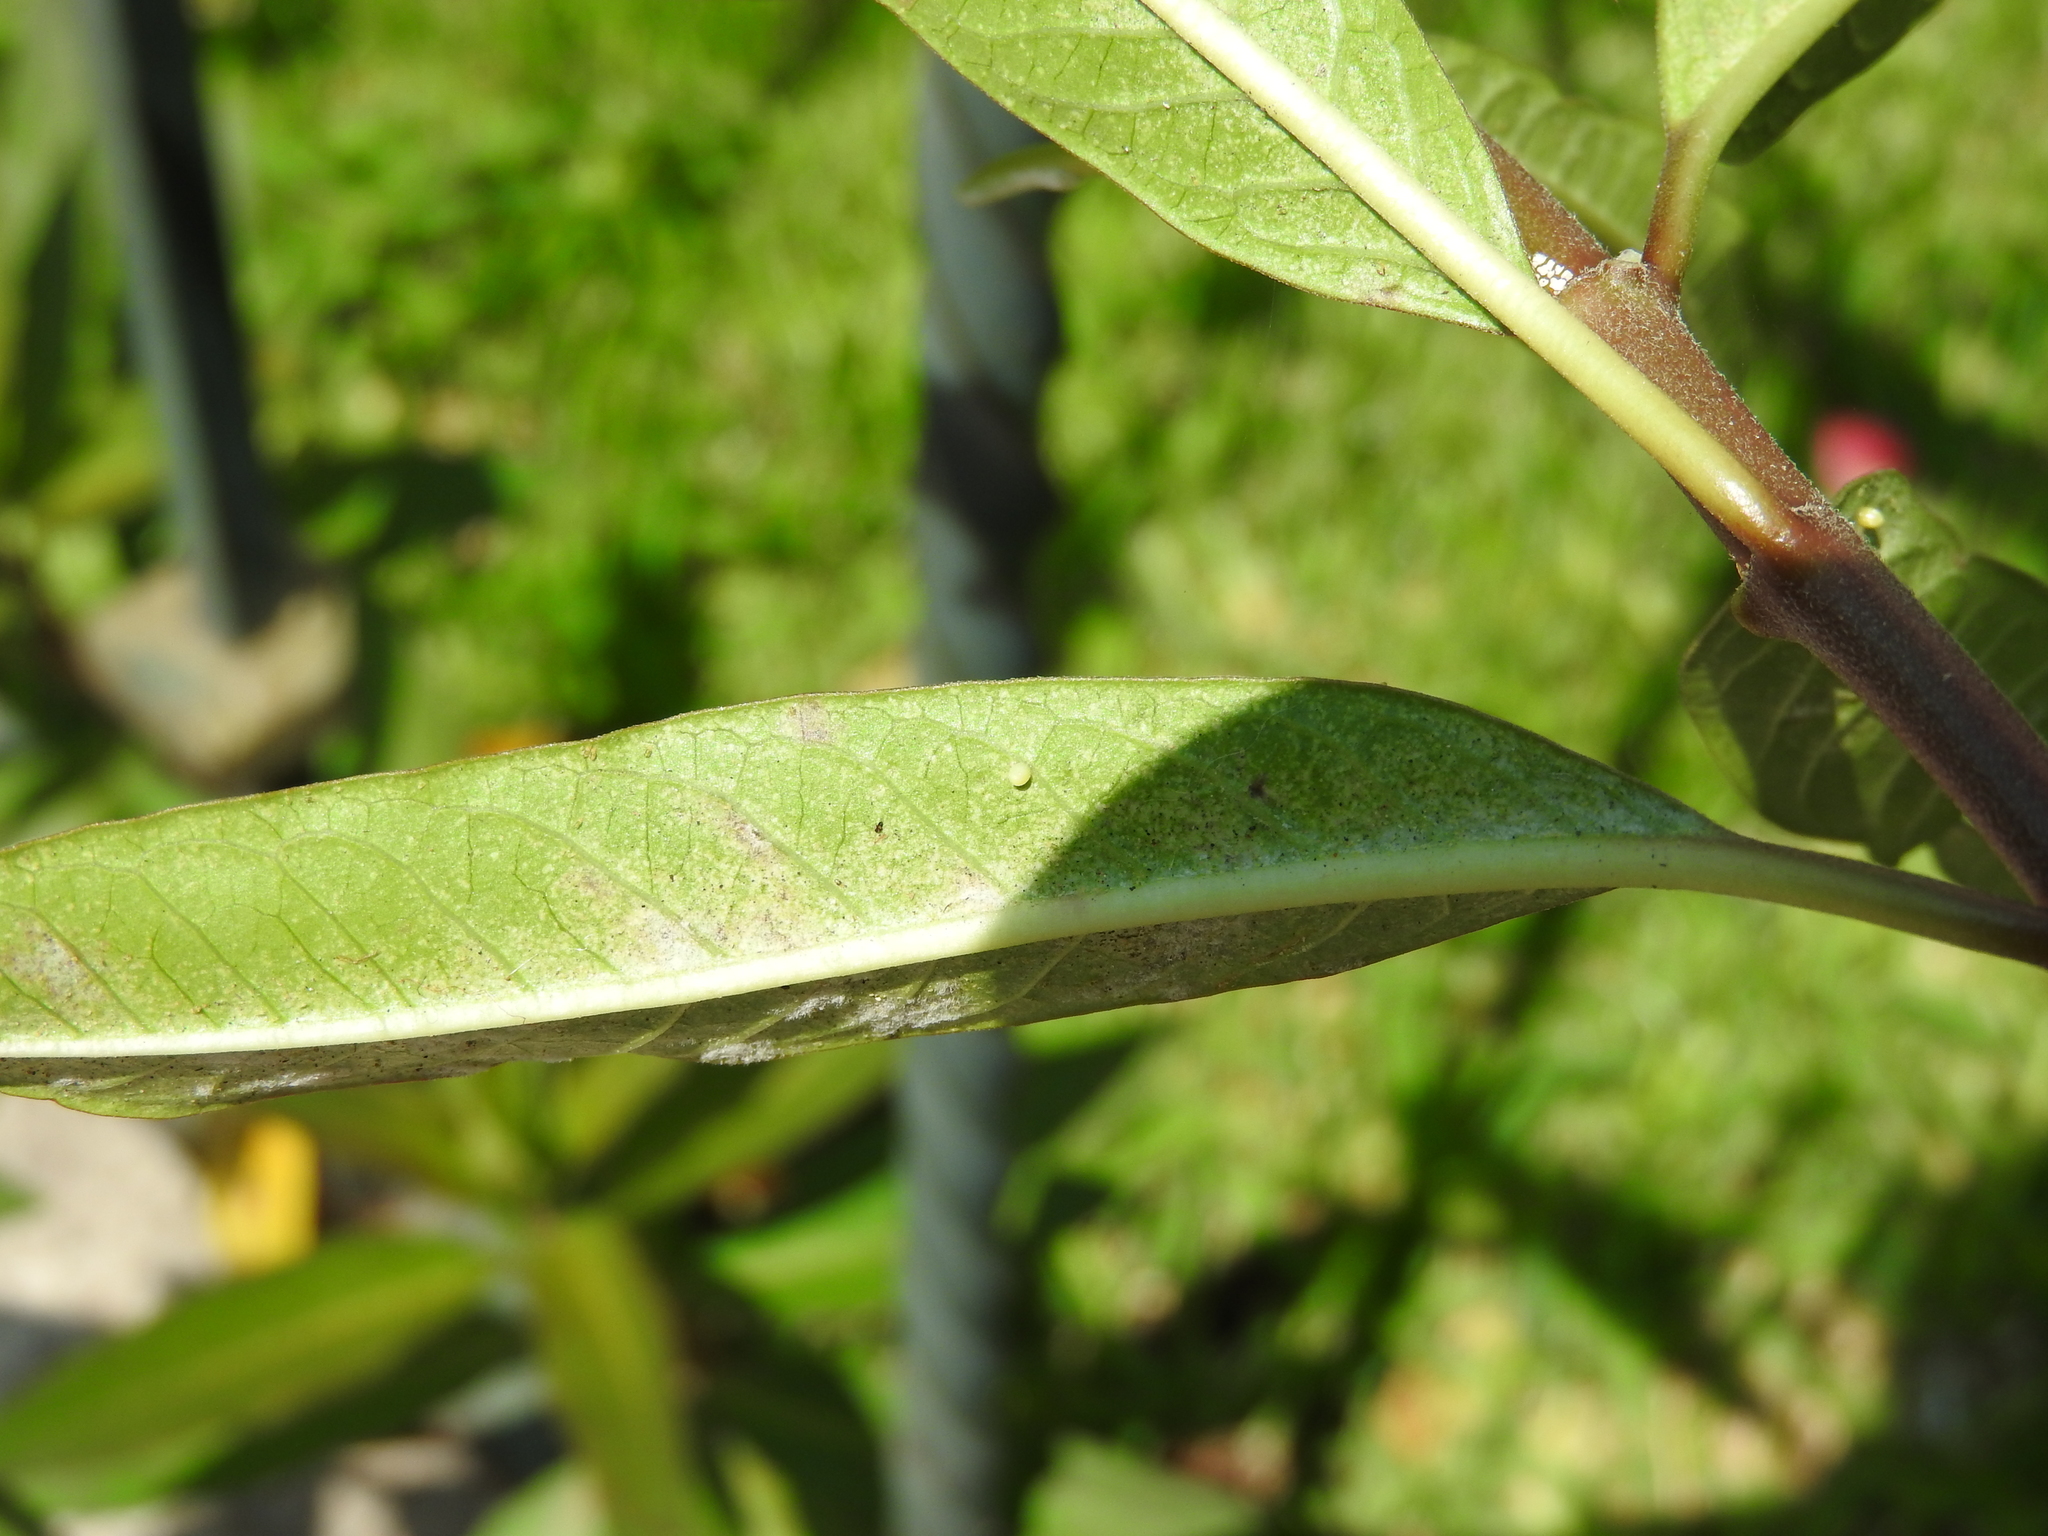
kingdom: Animalia
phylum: Arthropoda
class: Insecta
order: Lepidoptera
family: Nymphalidae
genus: Danaus
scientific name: Danaus plexippus
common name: Monarch
